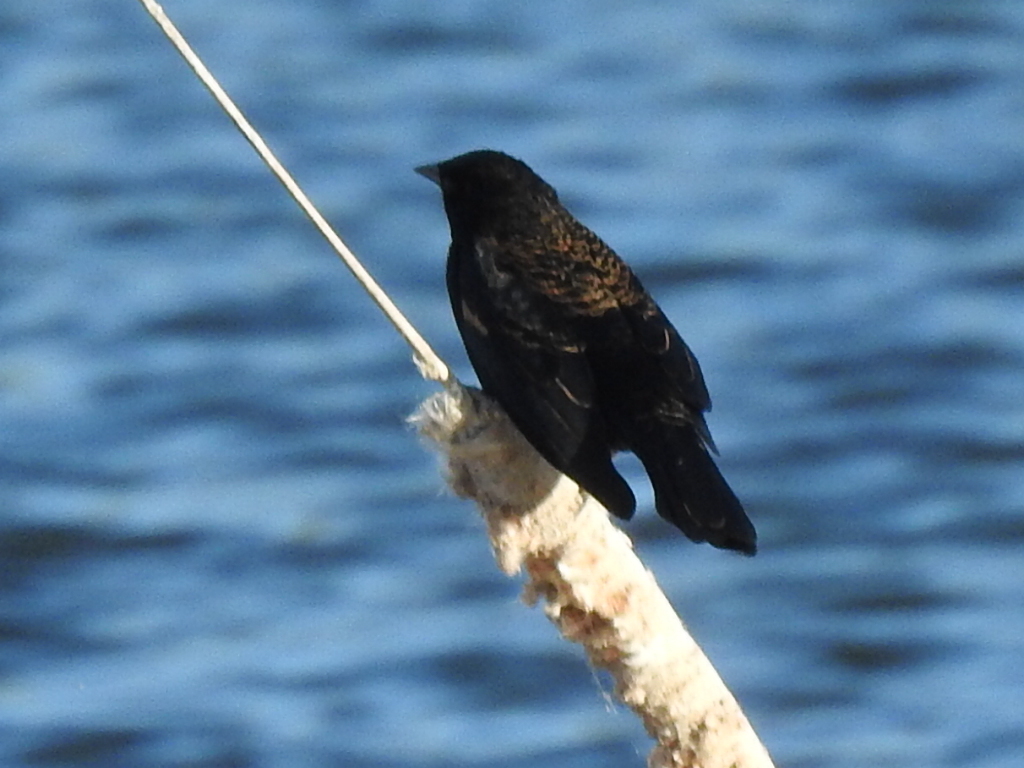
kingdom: Animalia
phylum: Chordata
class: Aves
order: Passeriformes
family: Icteridae
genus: Agelaius
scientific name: Agelaius phoeniceus
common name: Red-winged blackbird
